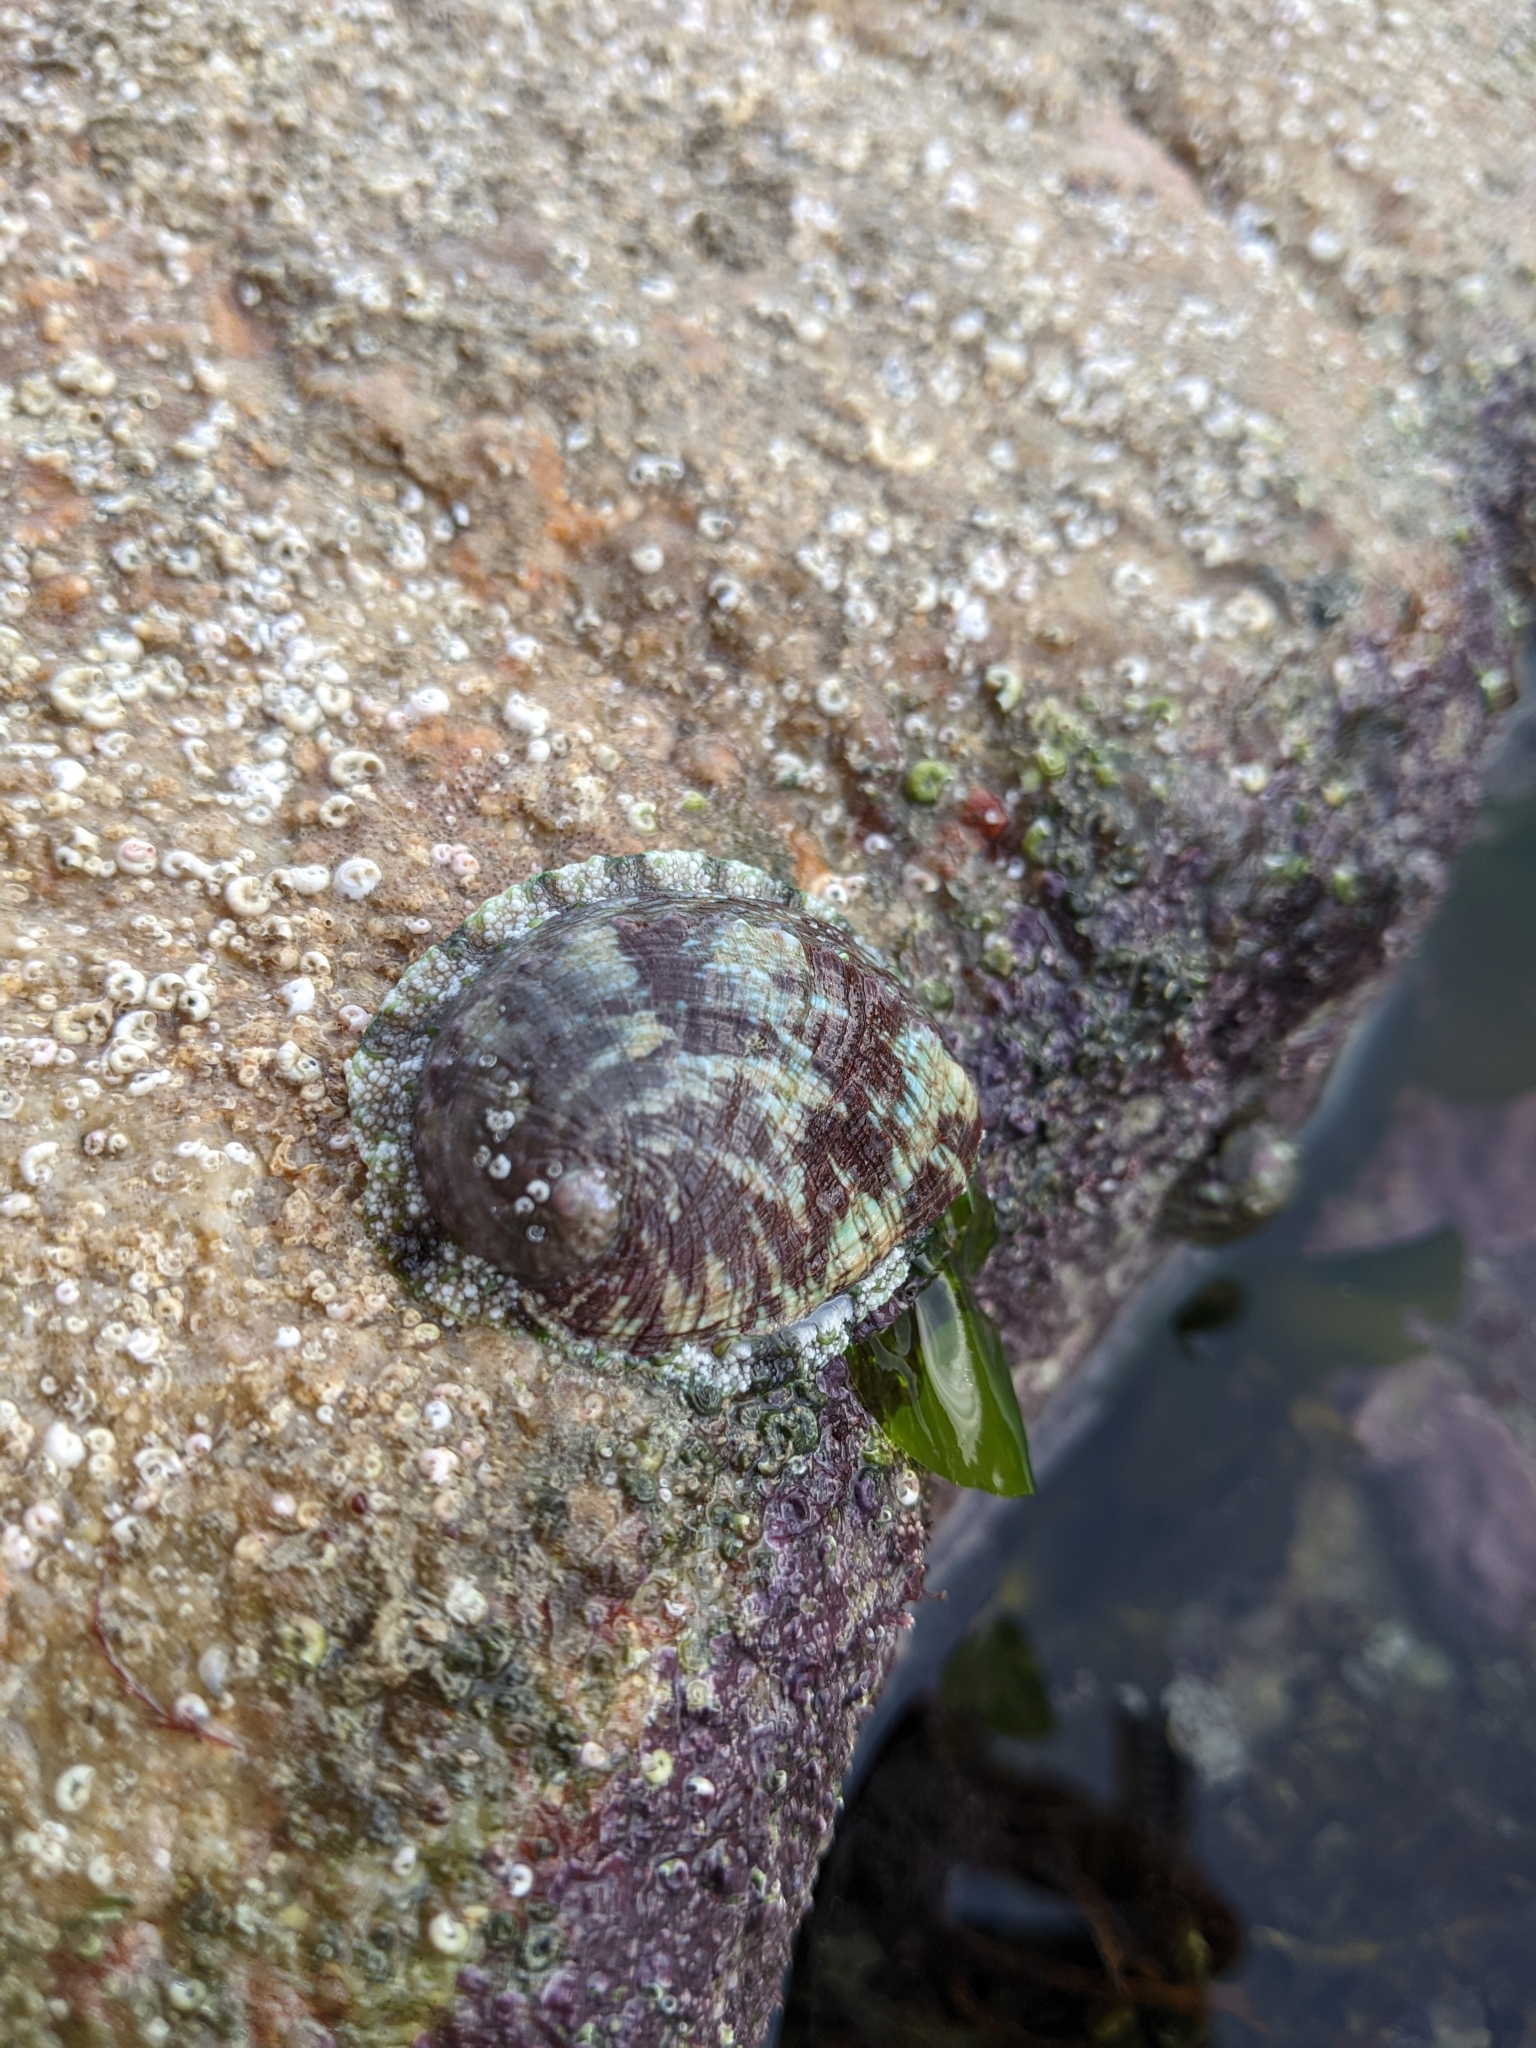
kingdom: Animalia
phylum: Mollusca
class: Gastropoda
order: Lepetellida
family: Haliotidae
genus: Haliotis
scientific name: Haliotis tuberculata
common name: Green ormer
